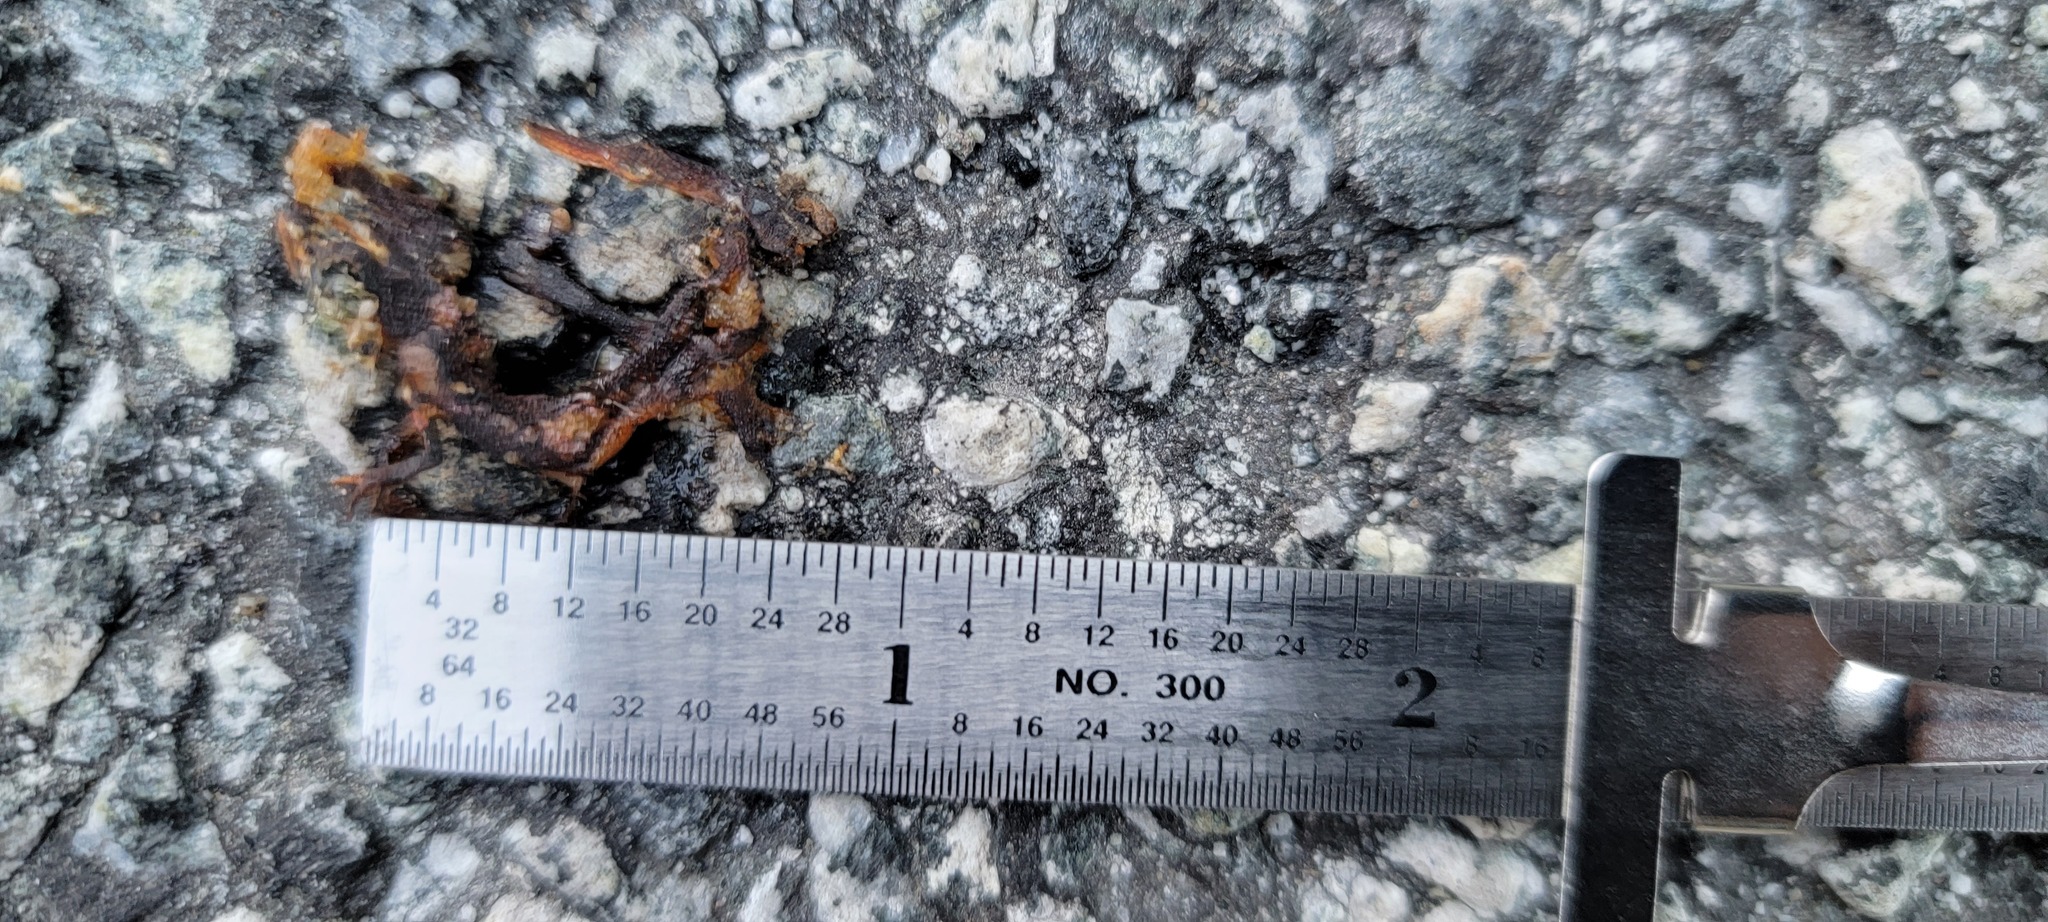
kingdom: Animalia
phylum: Chordata
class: Amphibia
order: Caudata
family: Salamandridae
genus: Taricha
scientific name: Taricha
